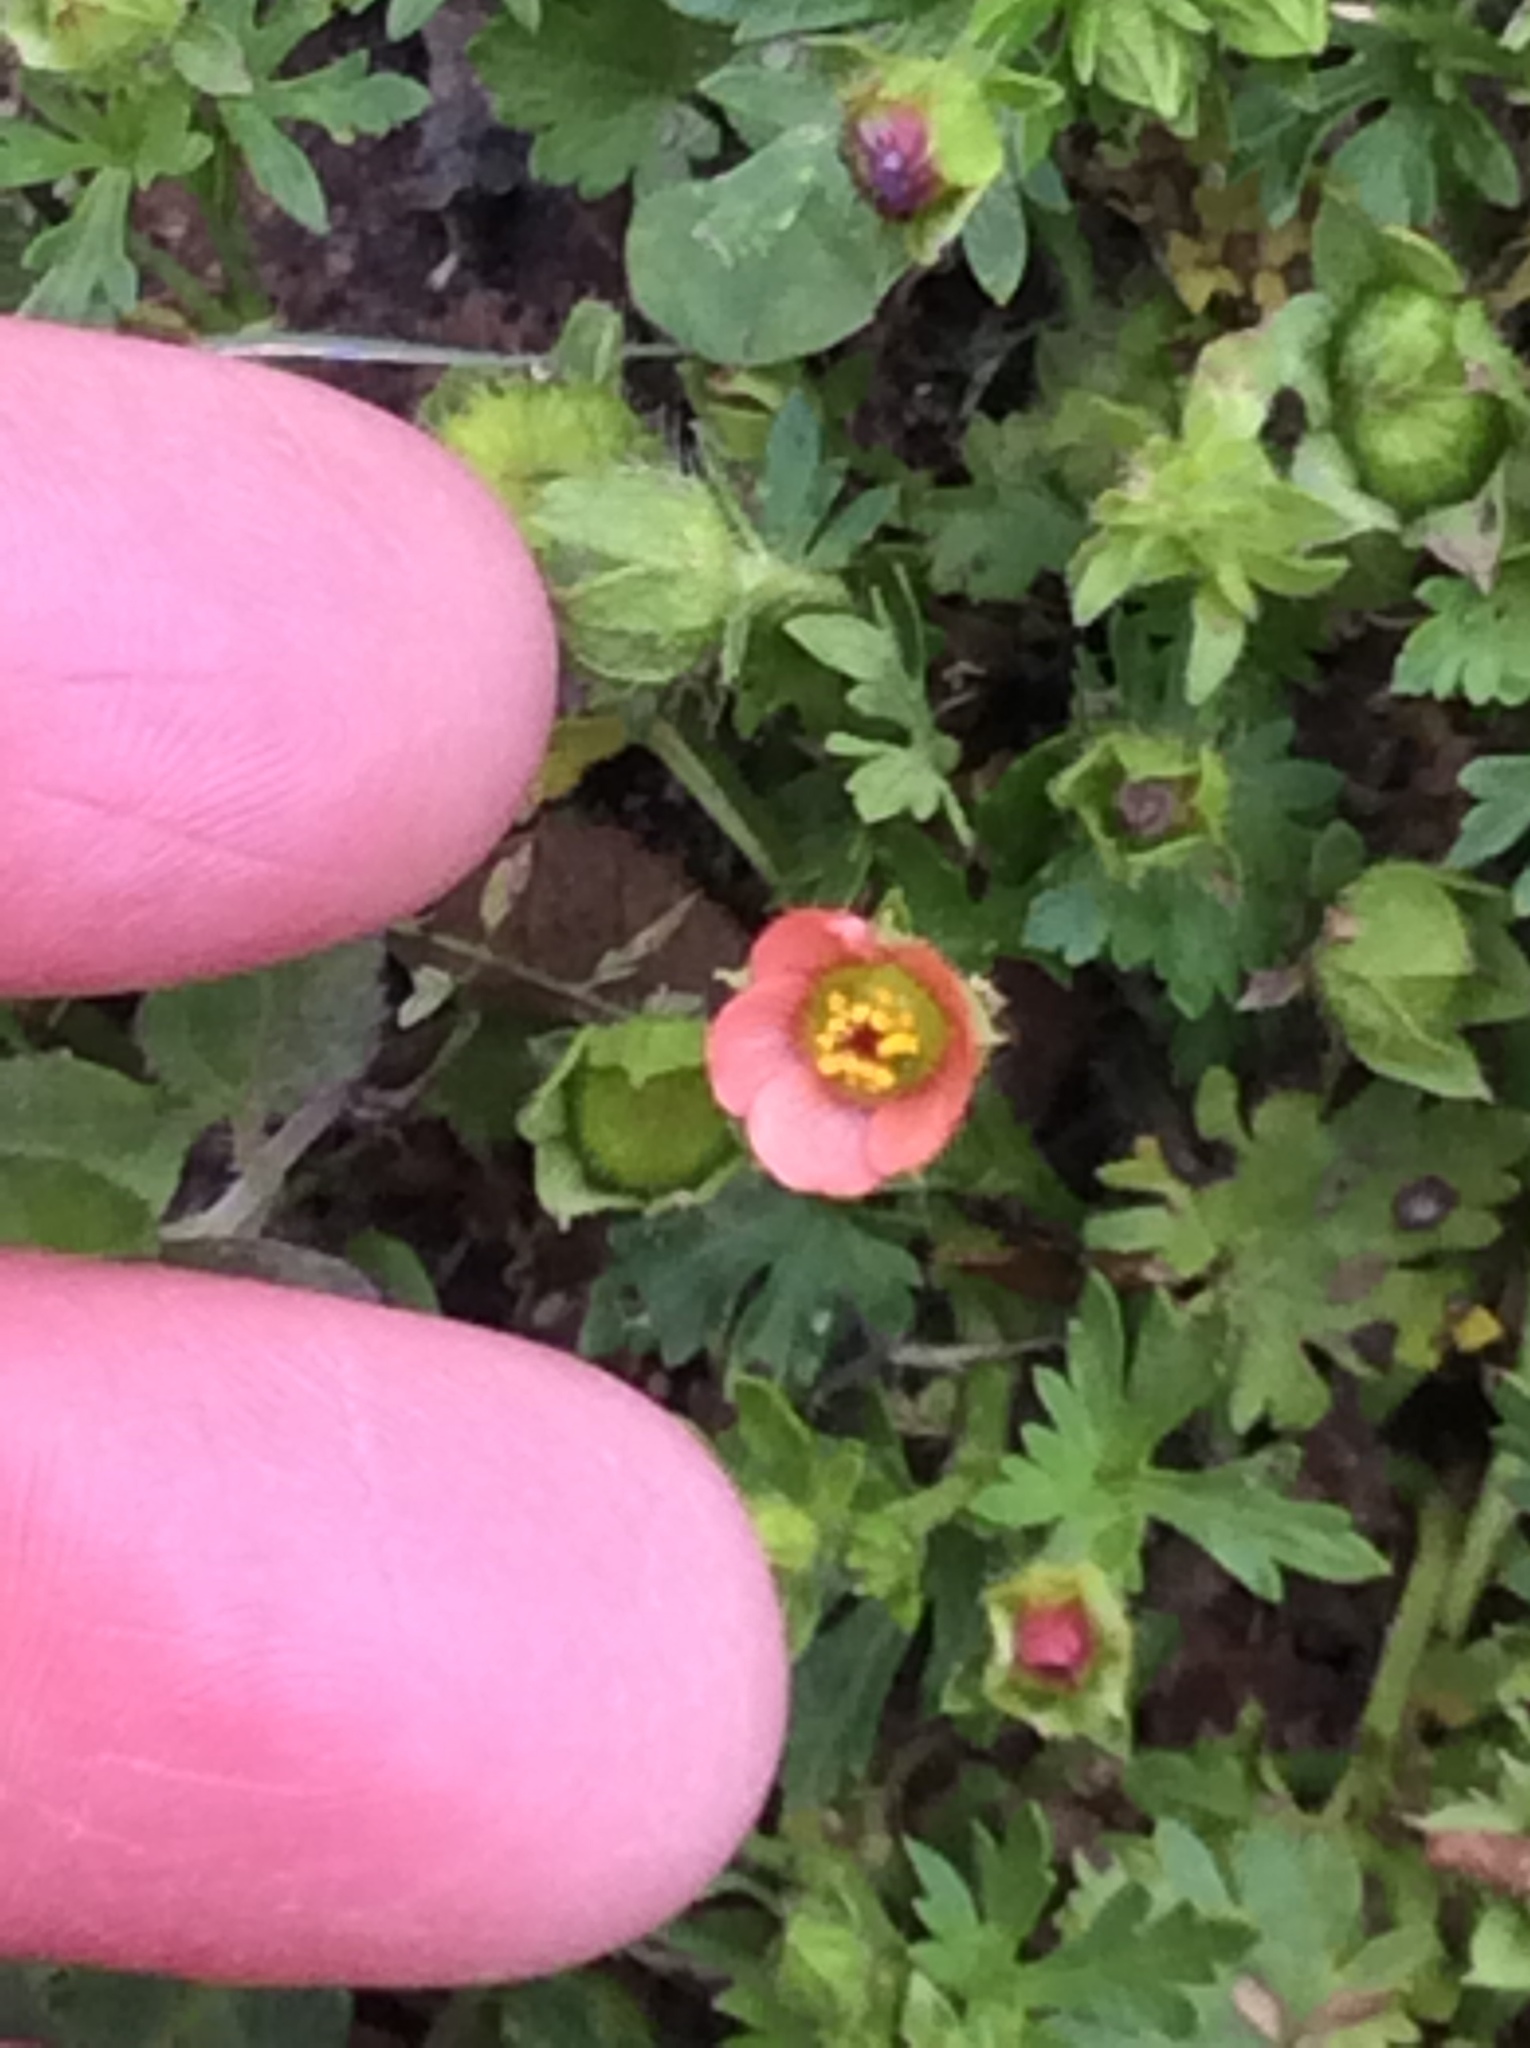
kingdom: Plantae
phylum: Tracheophyta
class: Magnoliopsida
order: Malvales
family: Malvaceae
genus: Modiola
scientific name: Modiola caroliniana
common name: Carolina bristlemallow
